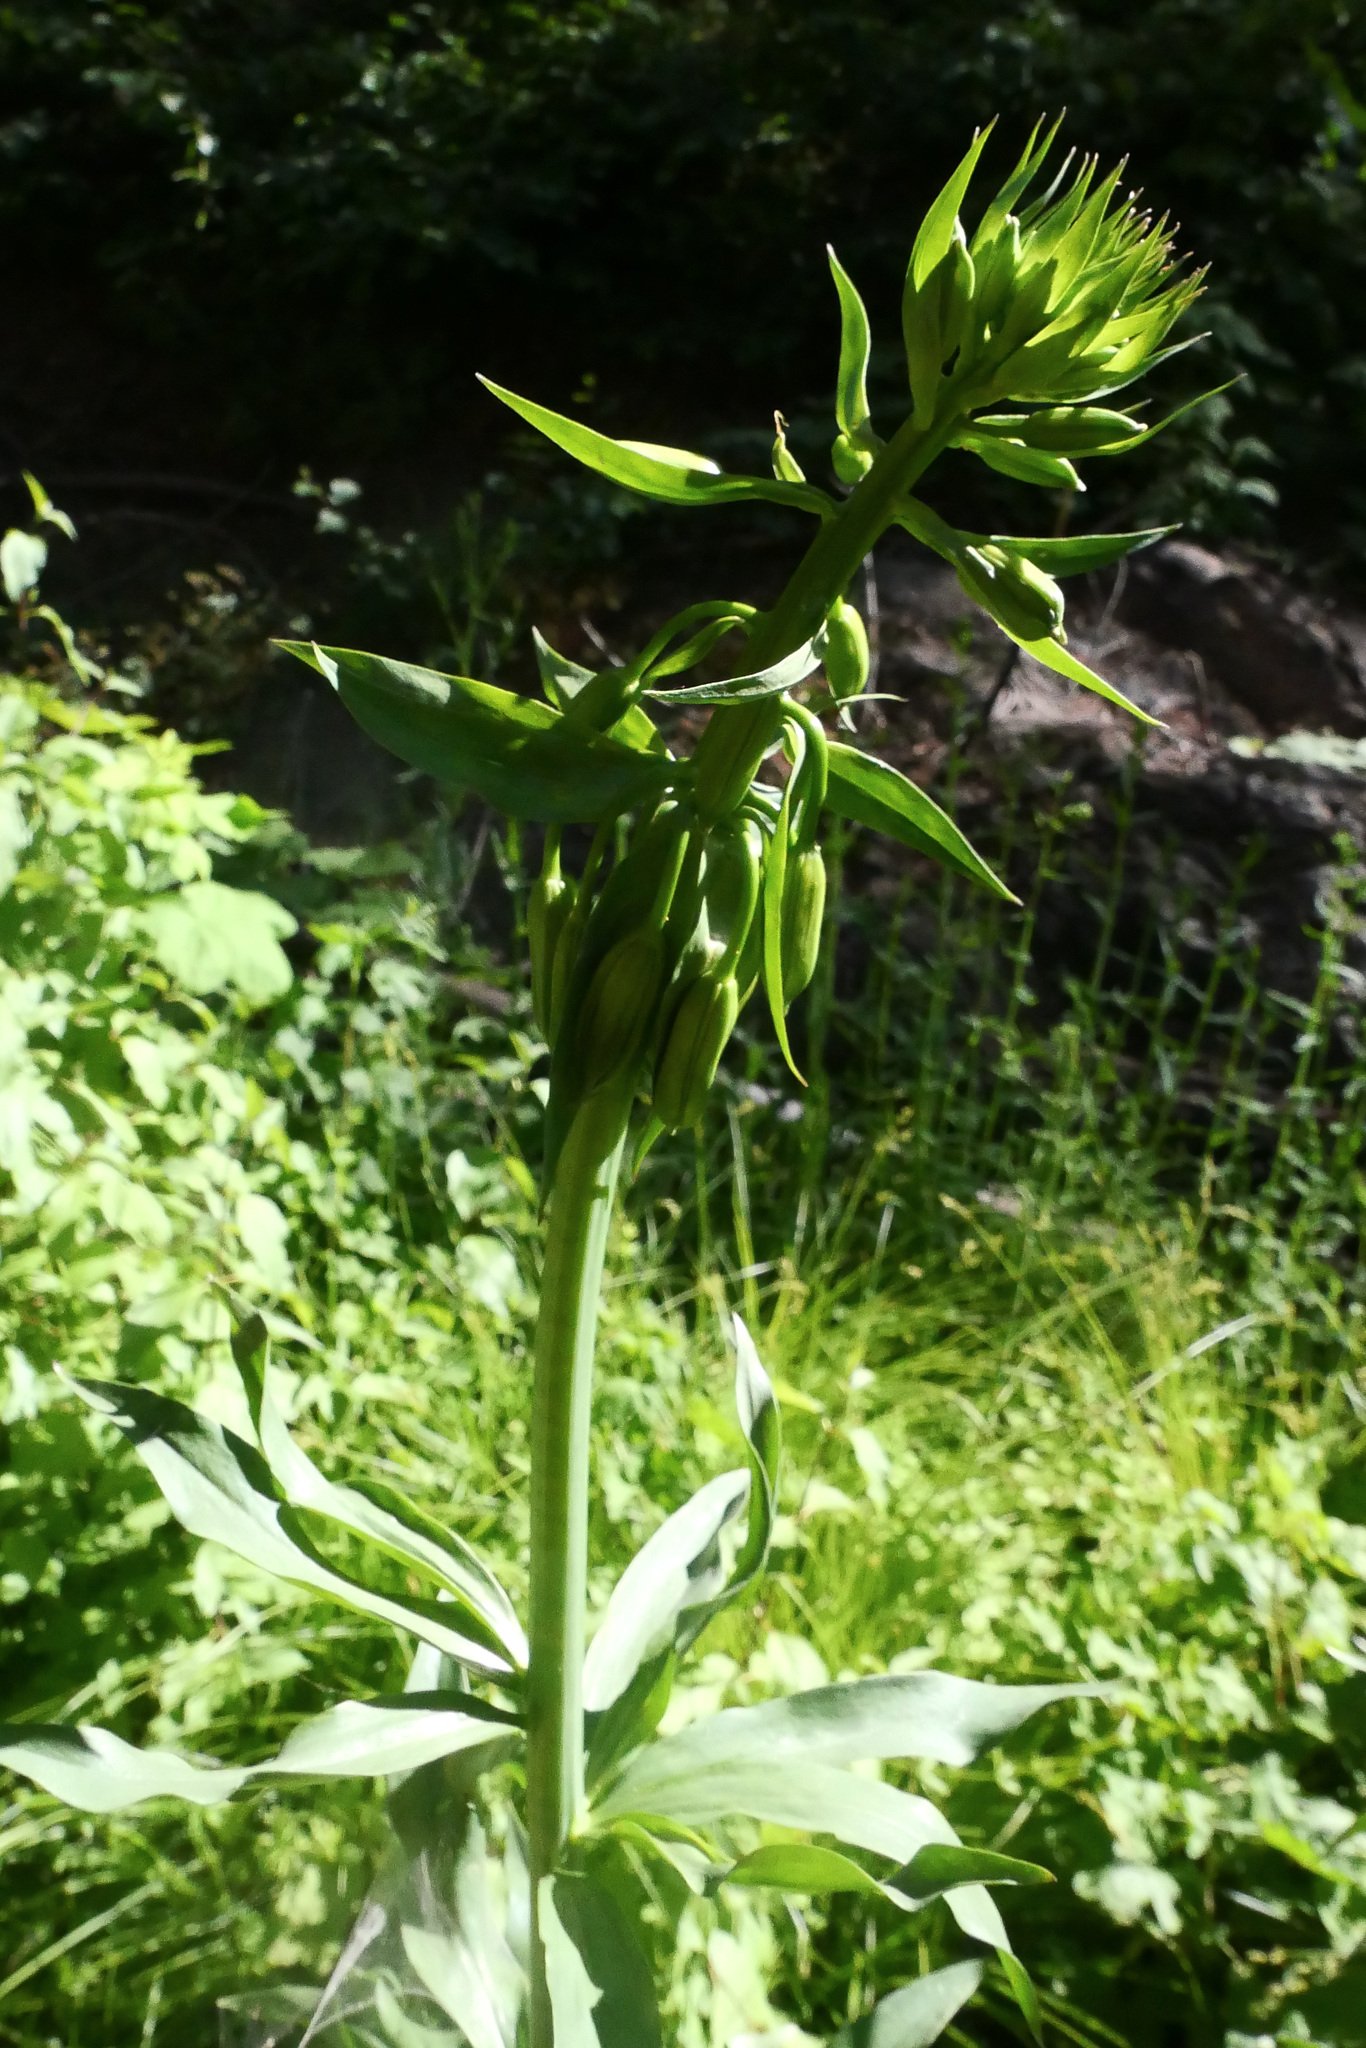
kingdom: Plantae
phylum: Tracheophyta
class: Liliopsida
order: Liliales
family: Liliaceae
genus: Lilium
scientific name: Lilium pardalinum
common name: Panther lily
